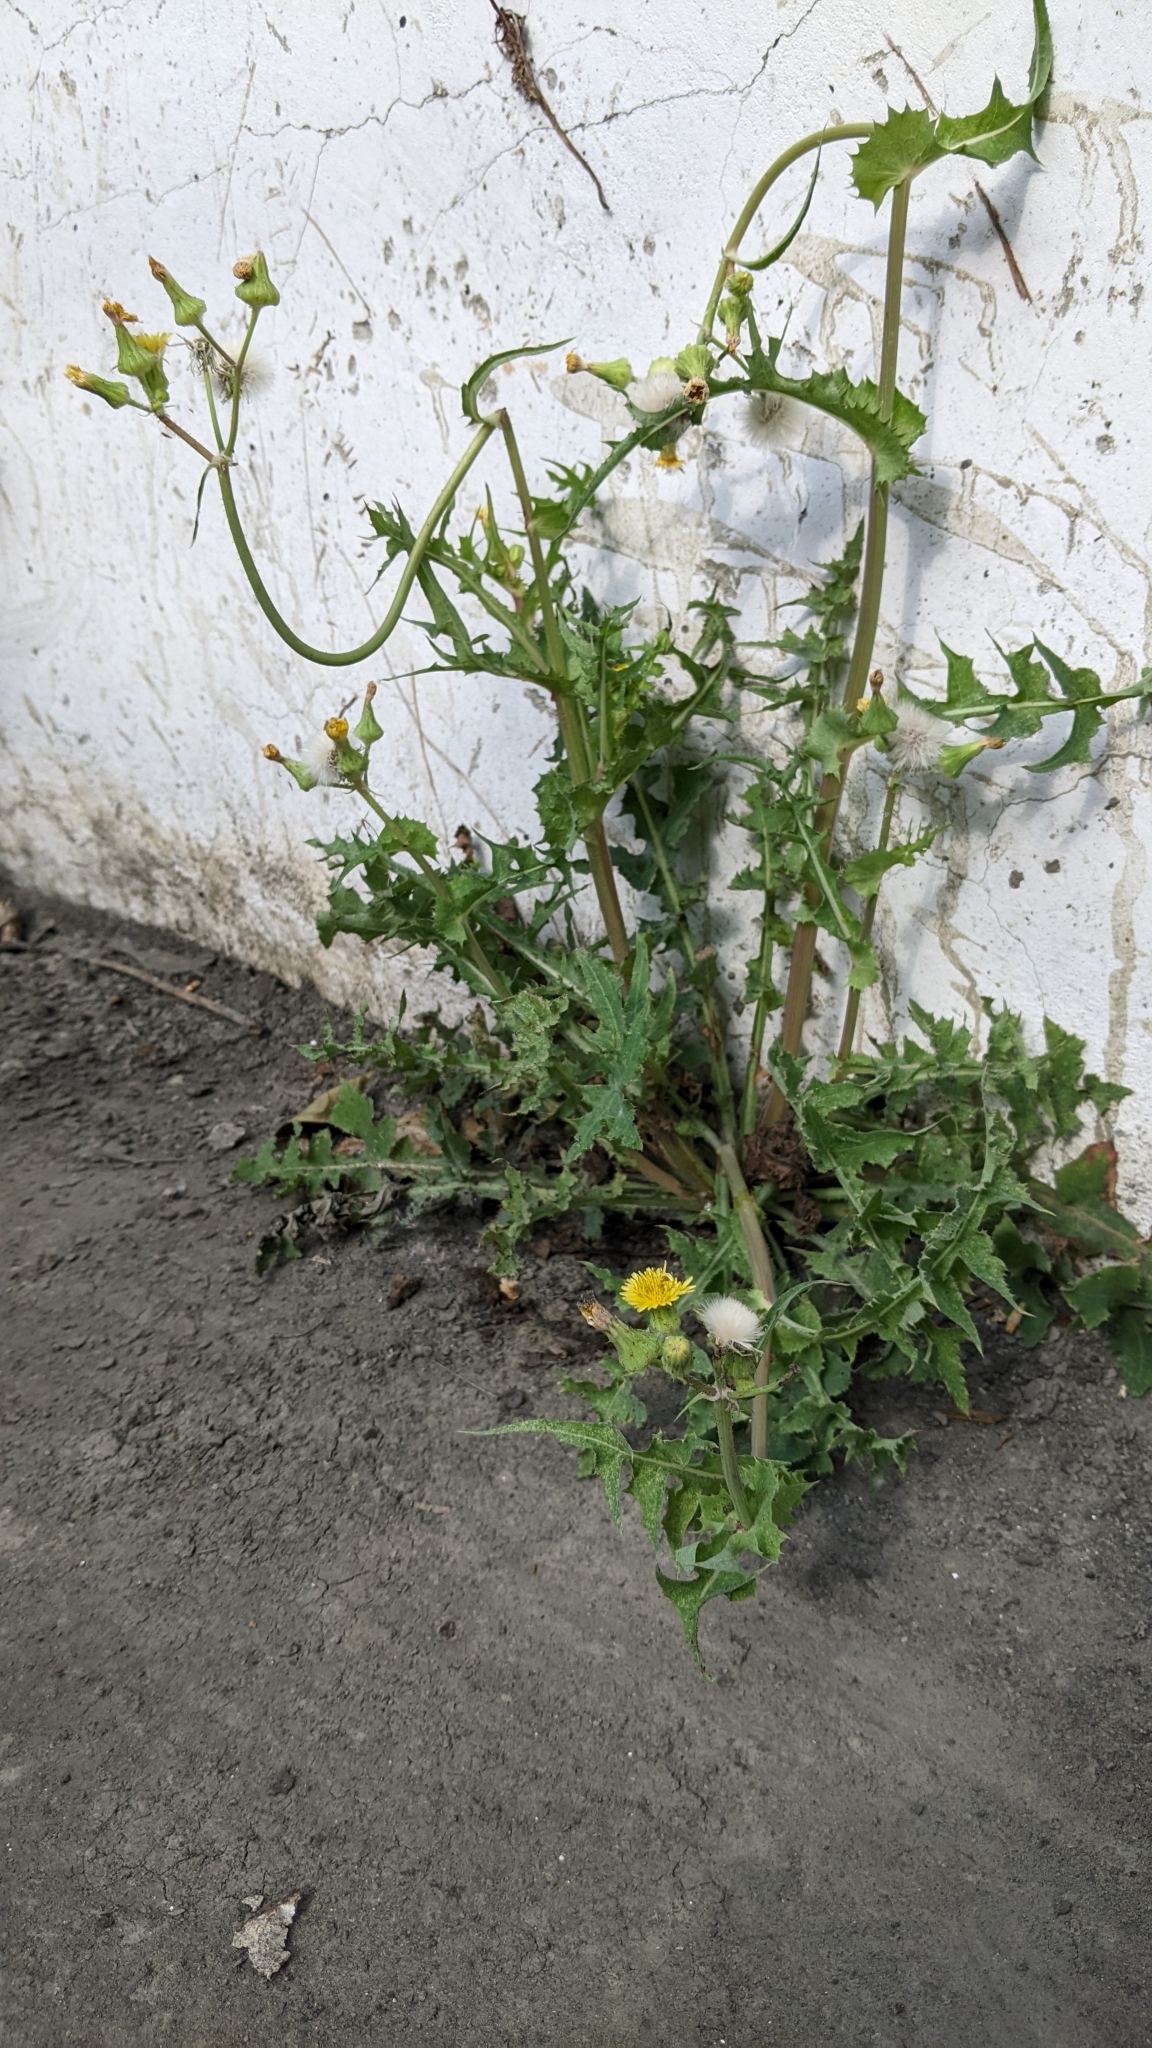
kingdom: Plantae
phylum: Tracheophyta
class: Magnoliopsida
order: Asterales
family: Asteraceae
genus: Sonchus
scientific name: Sonchus oleraceus
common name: Common sowthistle
